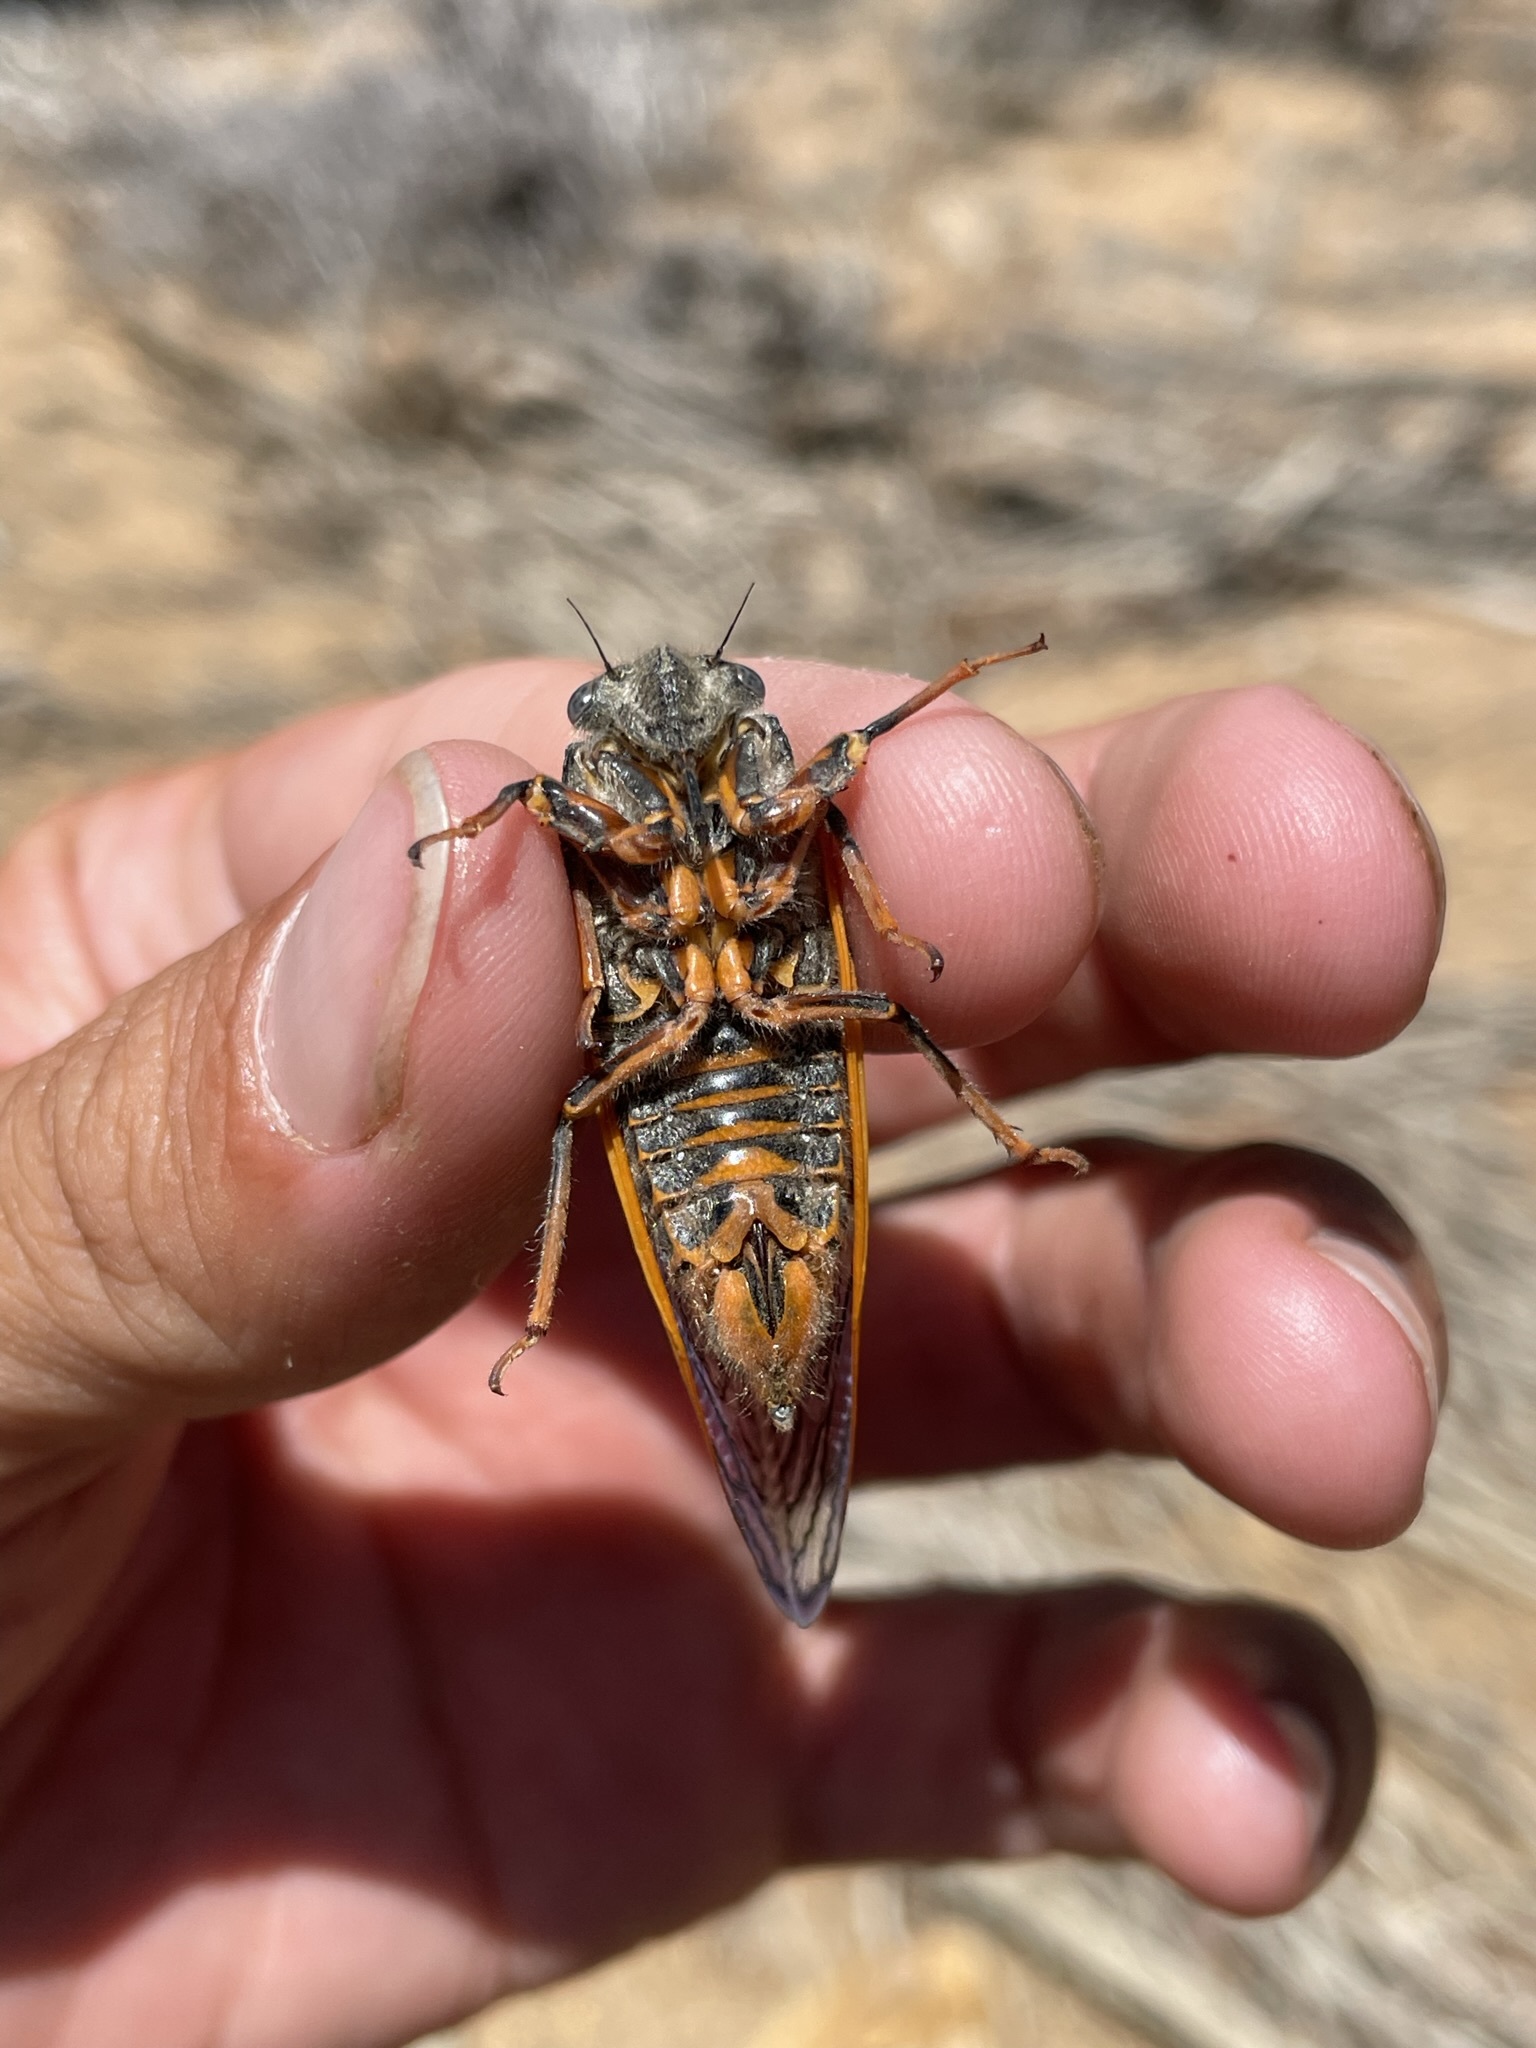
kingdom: Animalia
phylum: Arthropoda
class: Insecta
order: Hemiptera
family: Cicadidae
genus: Okanagana
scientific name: Okanagana magnifica
